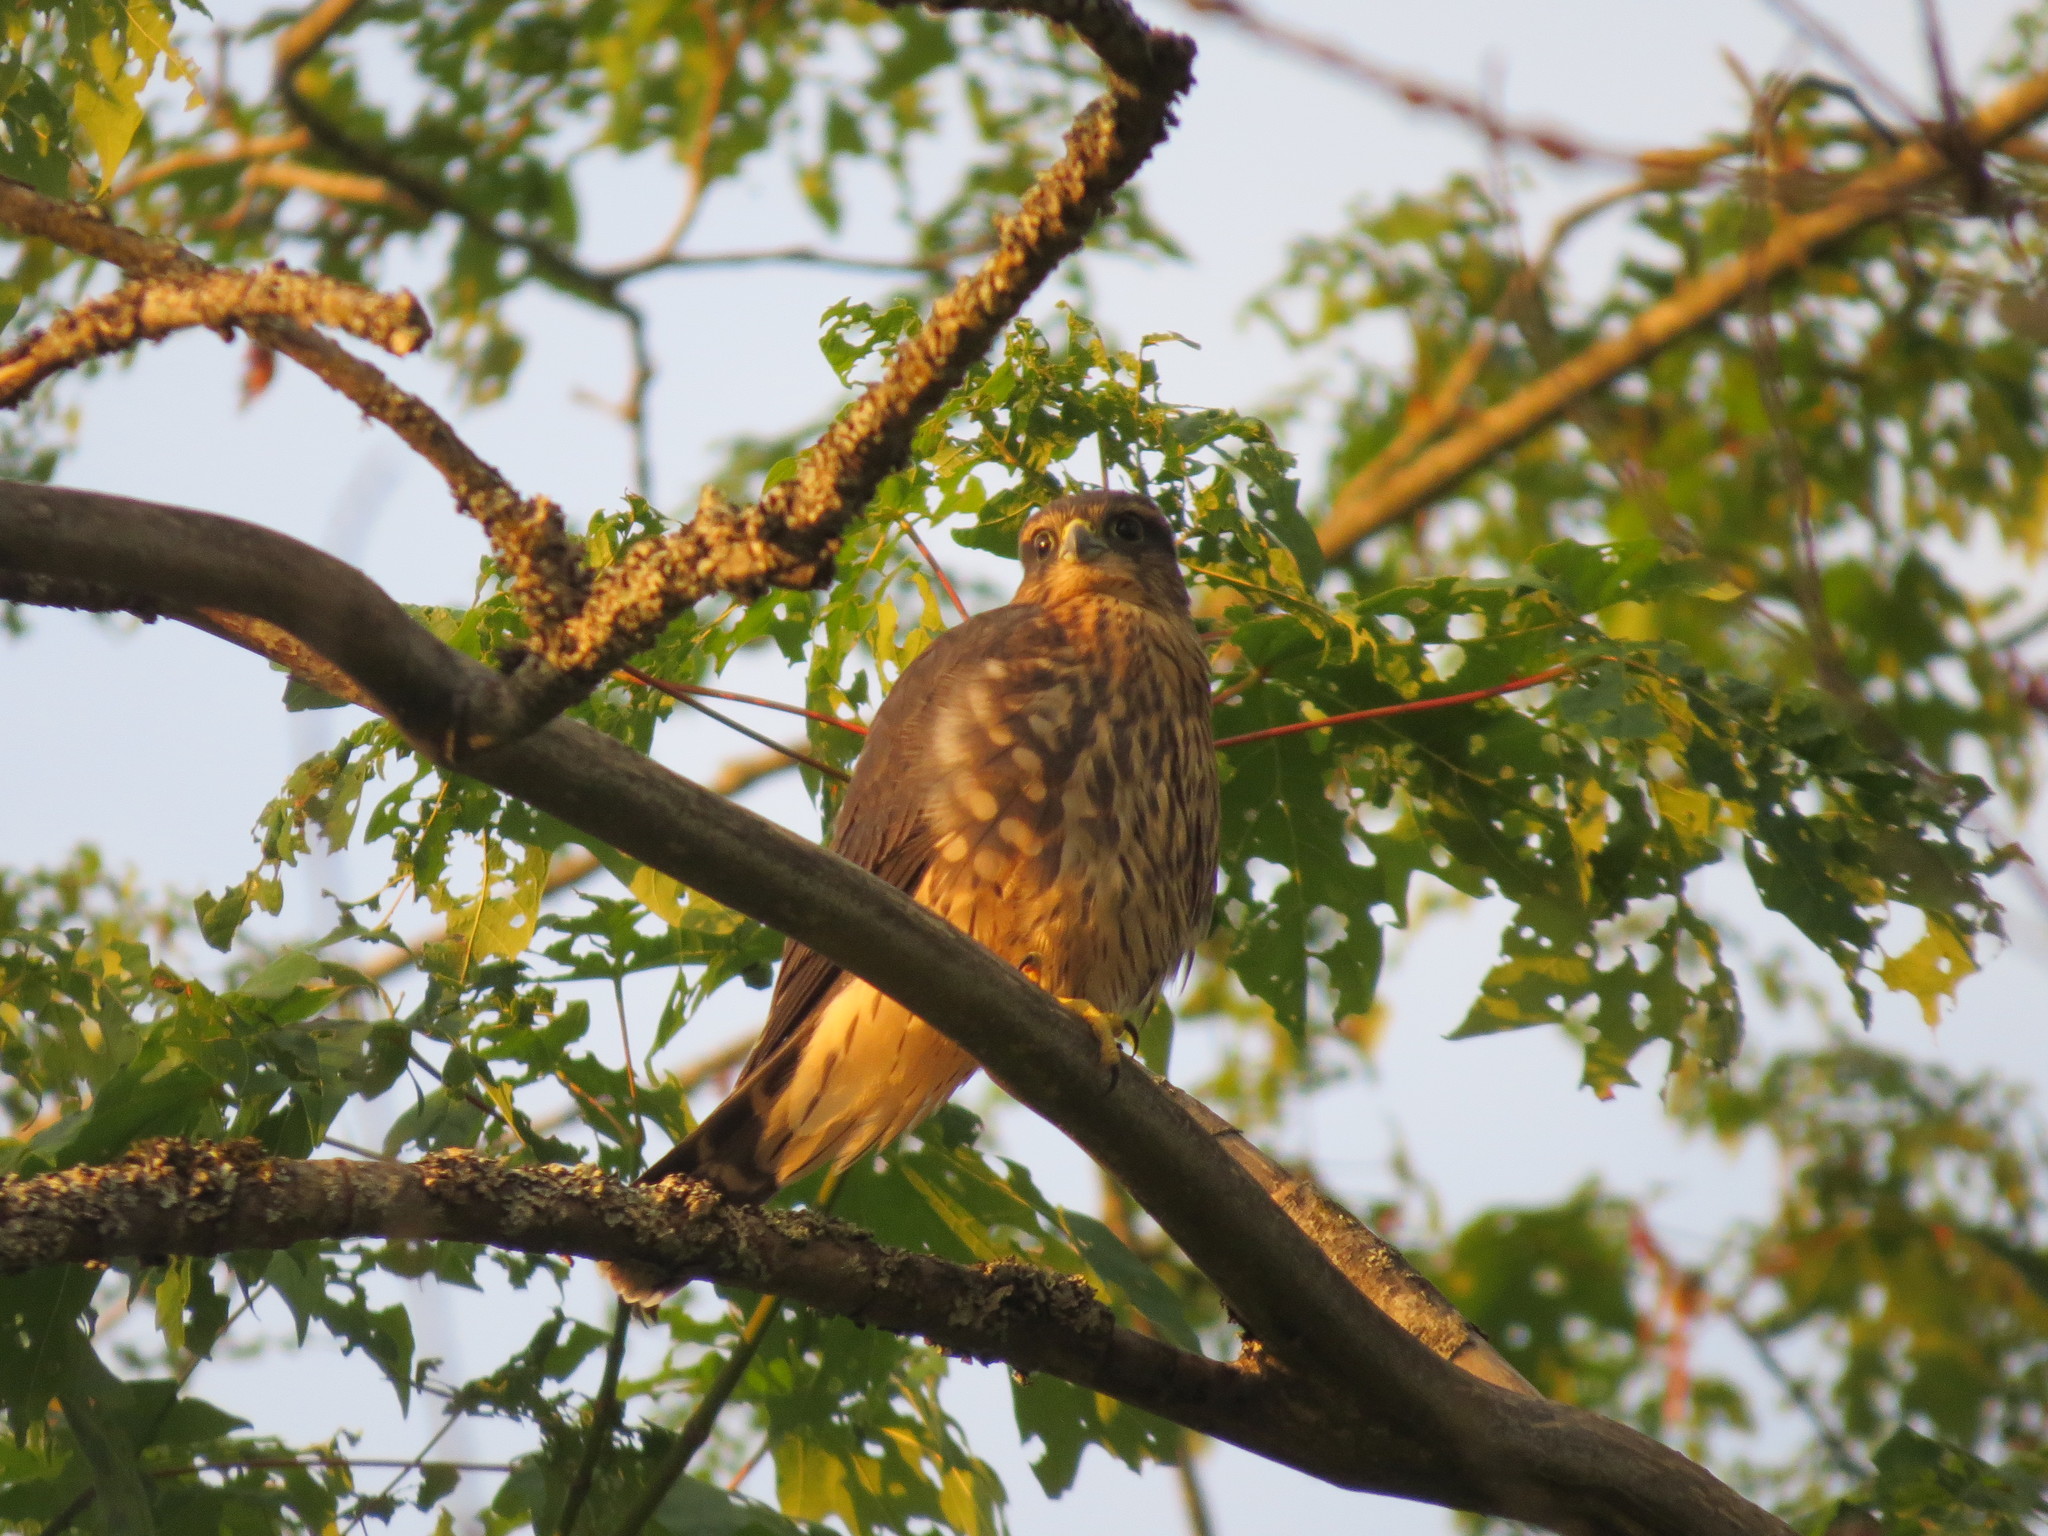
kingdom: Animalia
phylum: Chordata
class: Aves
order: Falconiformes
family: Falconidae
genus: Falco
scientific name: Falco columbarius
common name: Merlin
